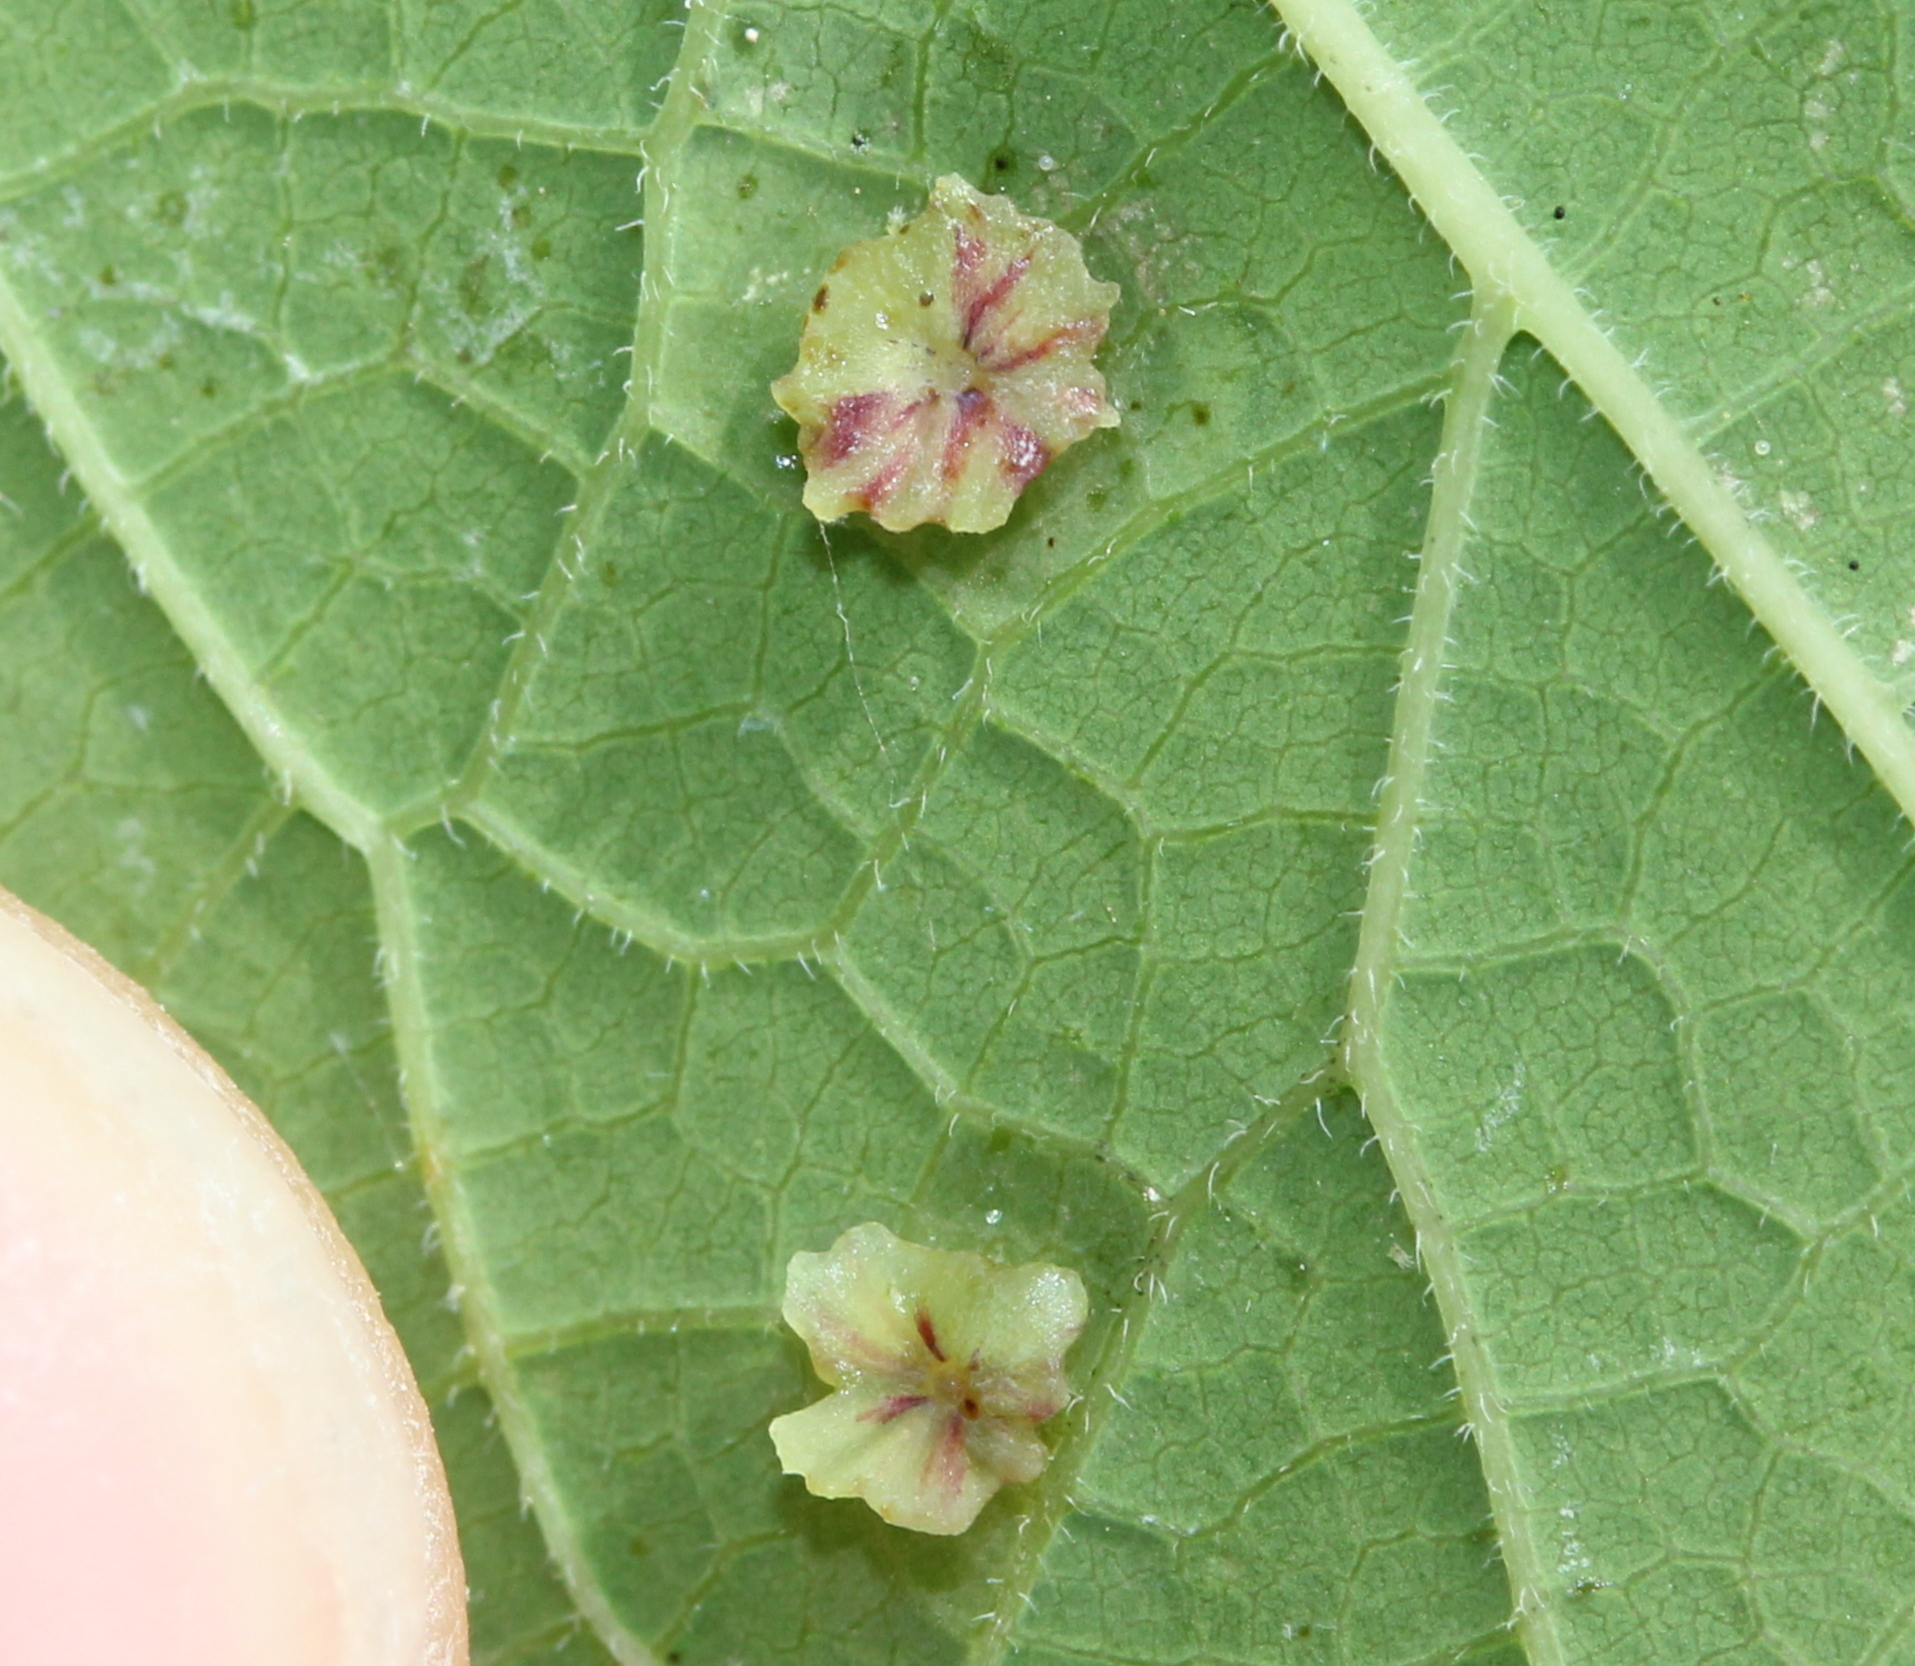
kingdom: Animalia
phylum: Arthropoda
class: Insecta
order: Hemiptera
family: Aphalaridae
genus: Pachypsylla
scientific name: Pachypsylla celtidisasterisca
